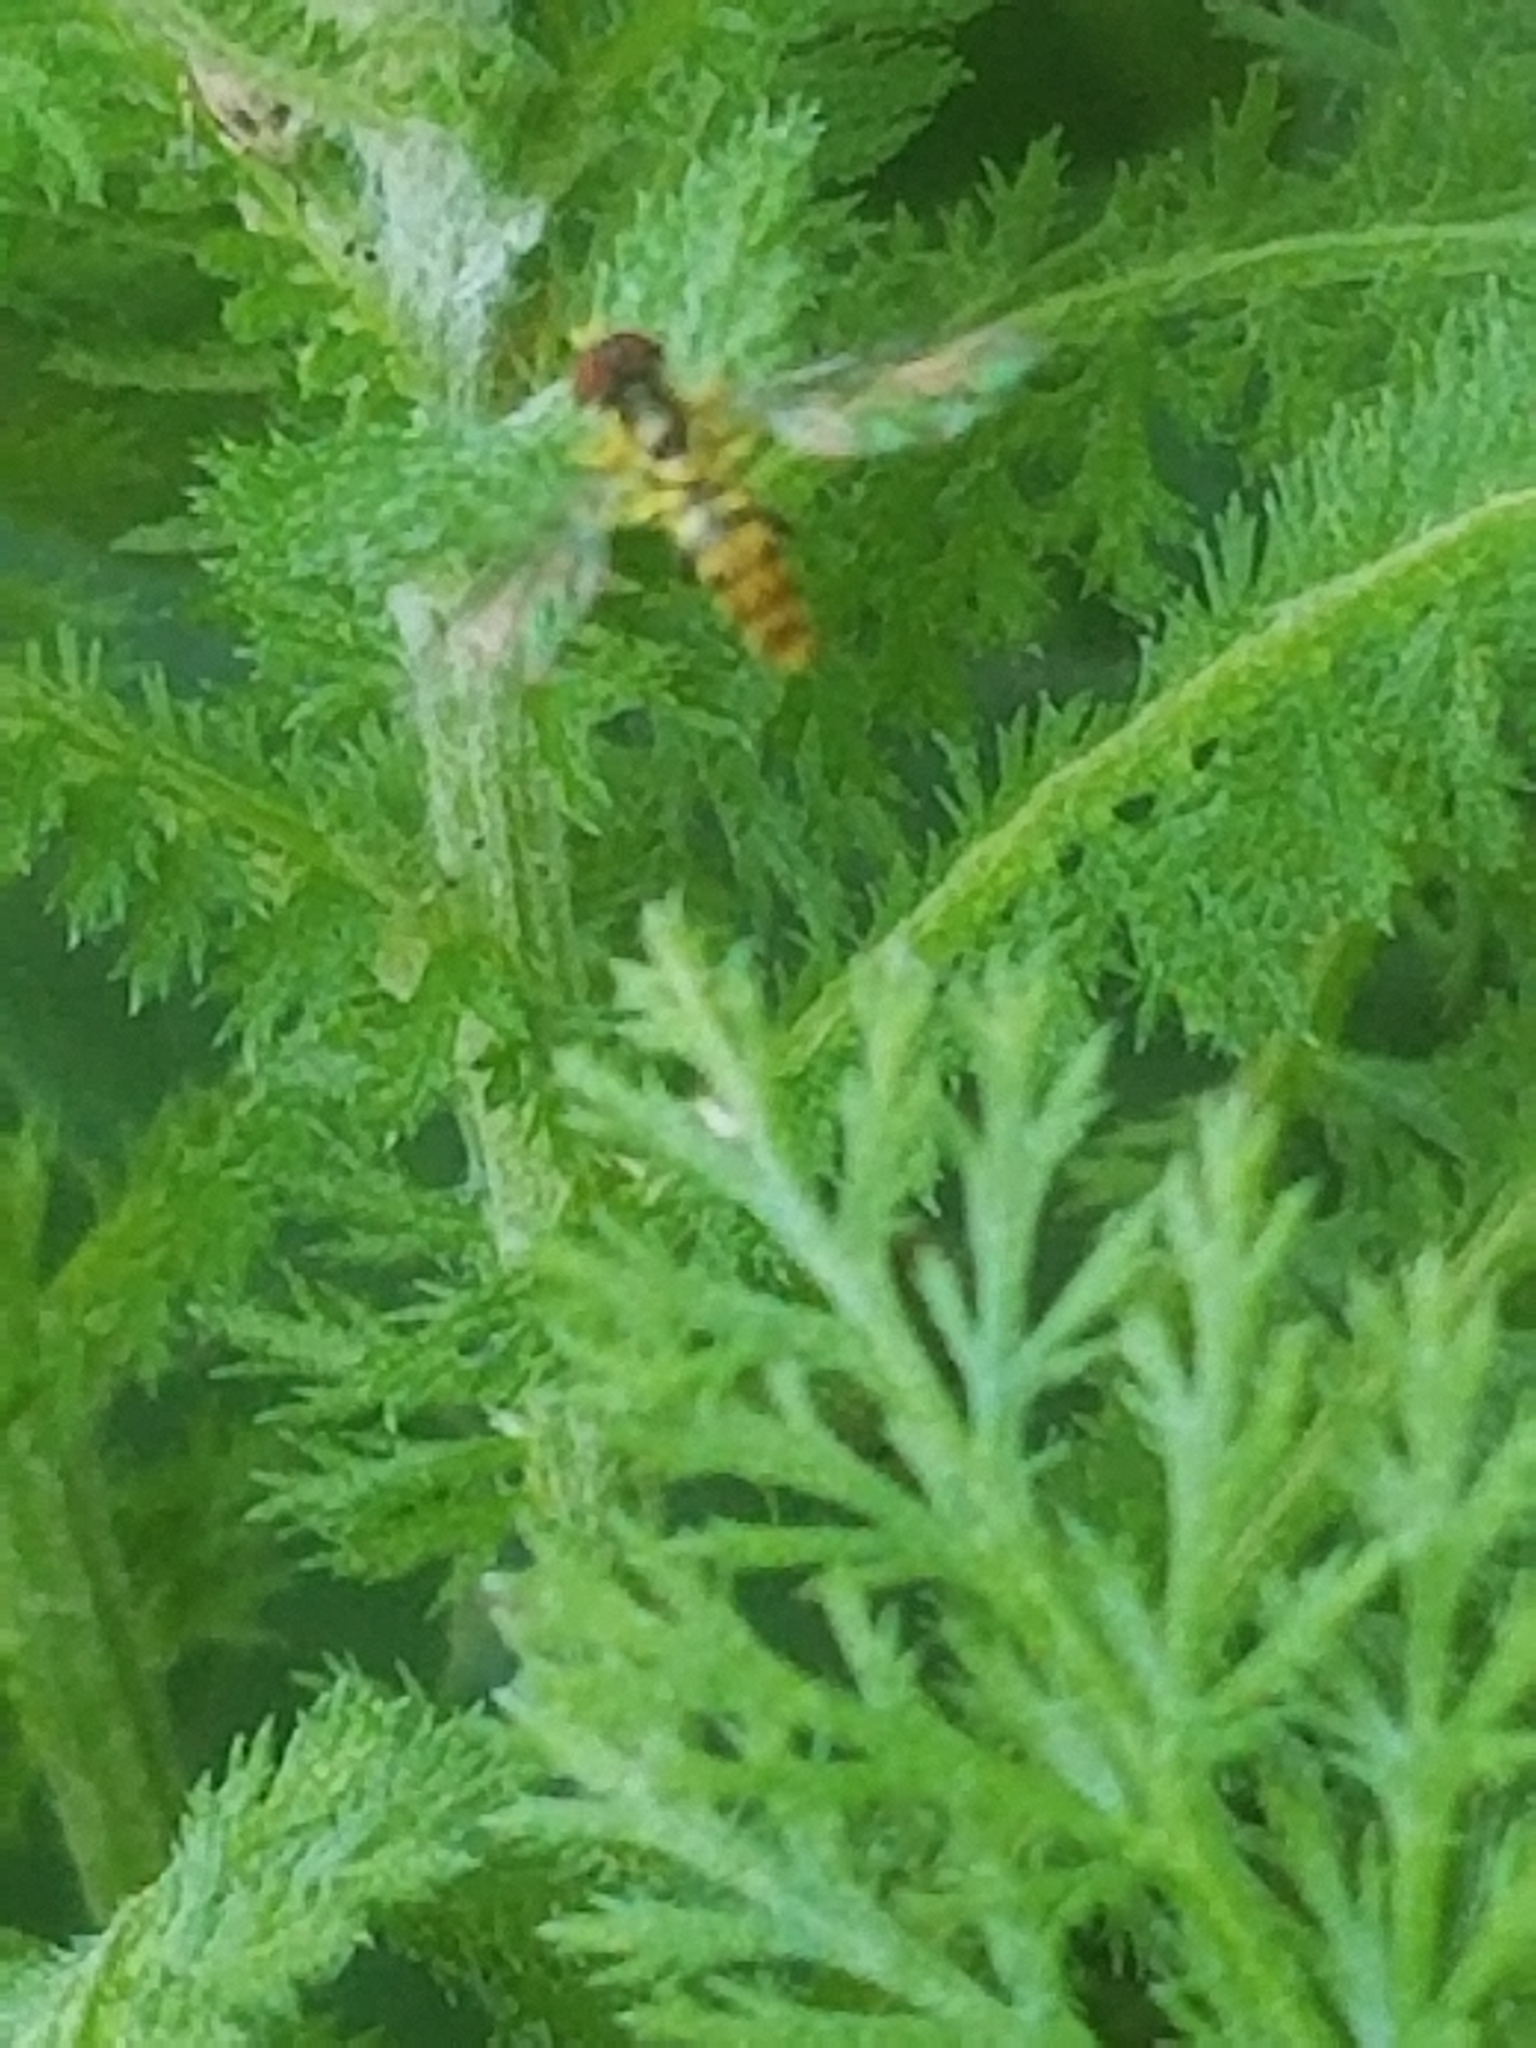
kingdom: Animalia
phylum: Arthropoda
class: Insecta
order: Diptera
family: Syrphidae
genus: Toxomerus
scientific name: Toxomerus geminatus
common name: Eastern calligrapher
